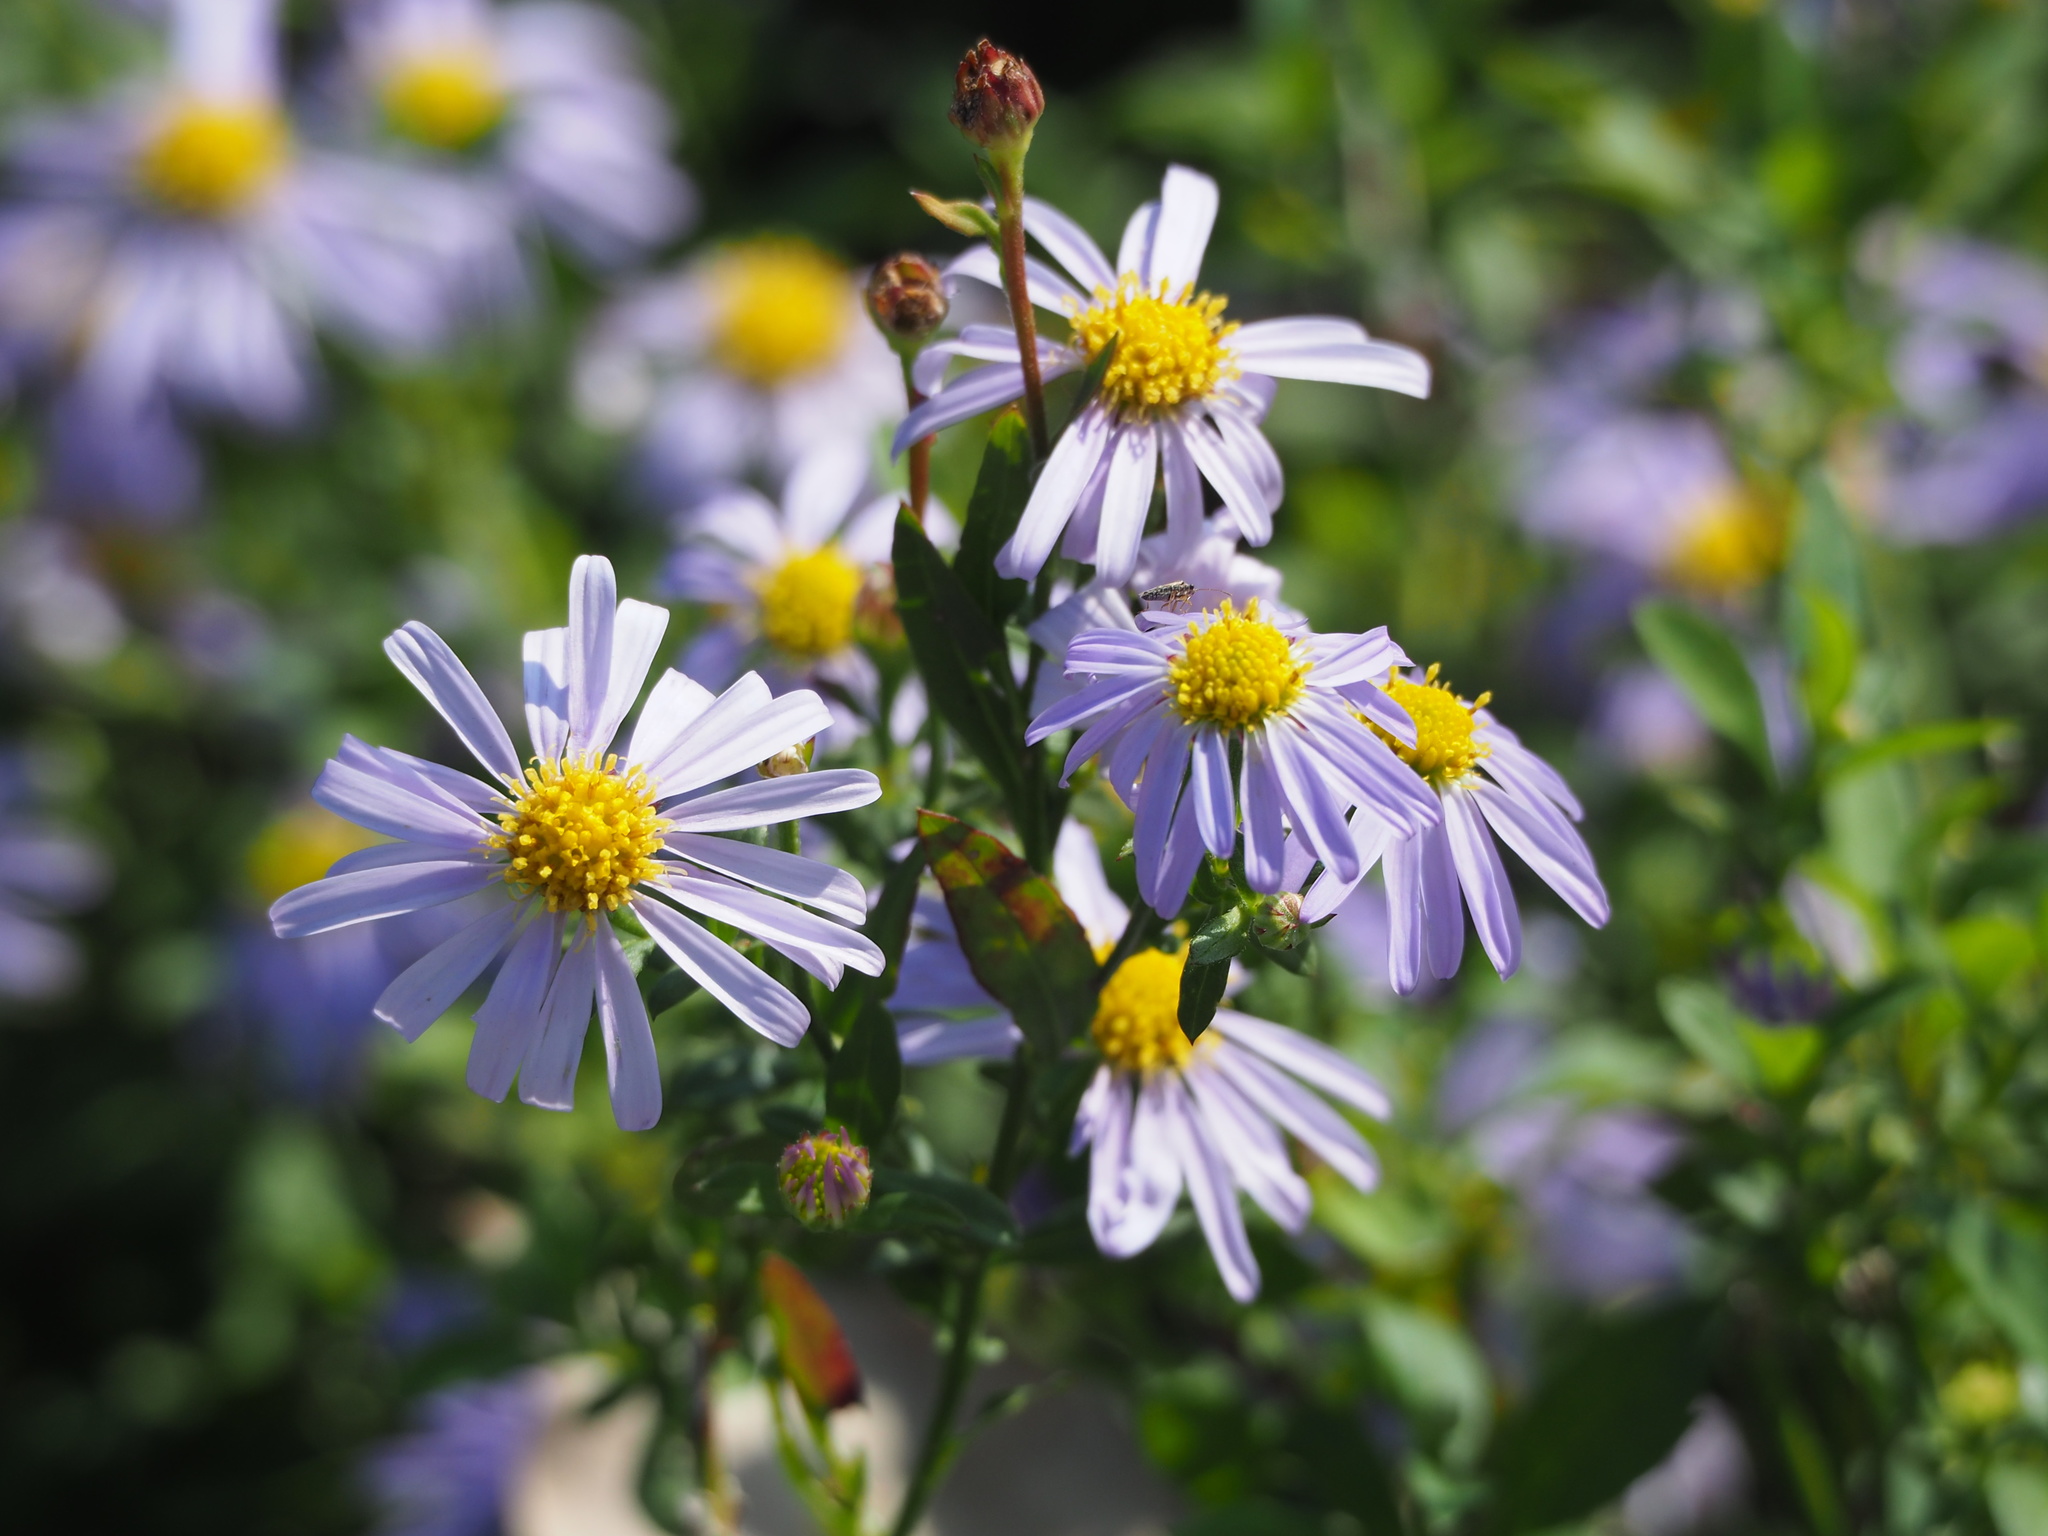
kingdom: Plantae
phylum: Tracheophyta
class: Magnoliopsida
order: Asterales
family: Asteraceae
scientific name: Asteraceae
